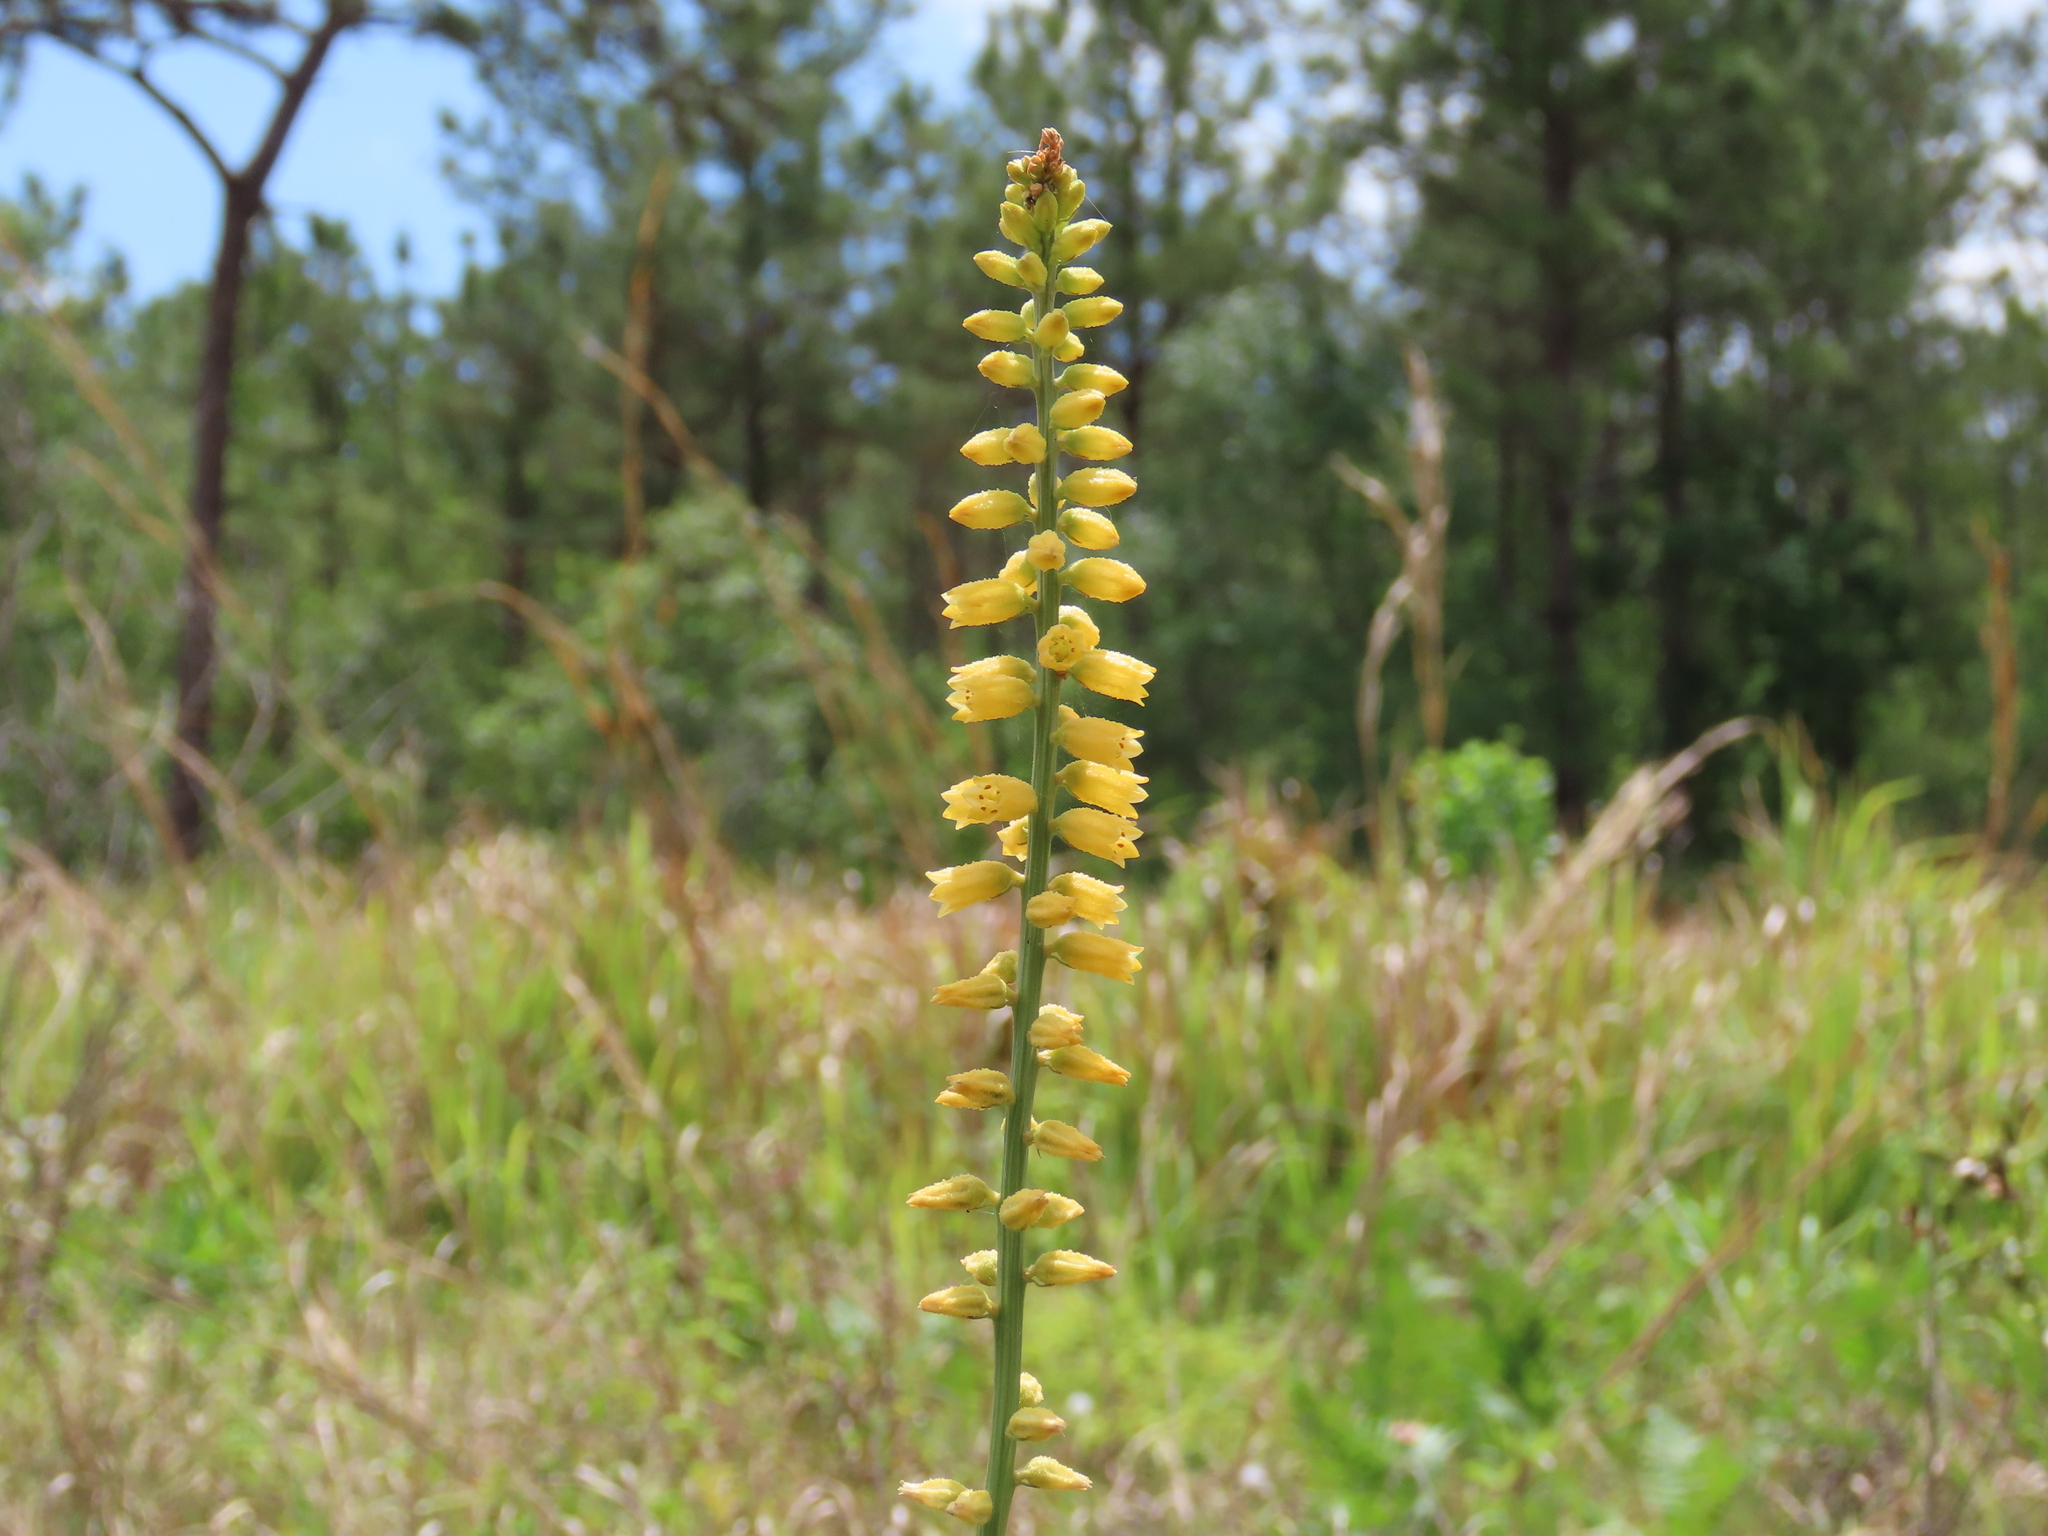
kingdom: Plantae
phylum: Tracheophyta
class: Liliopsida
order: Dioscoreales
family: Nartheciaceae
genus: Aletris
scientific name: Aletris lutea
